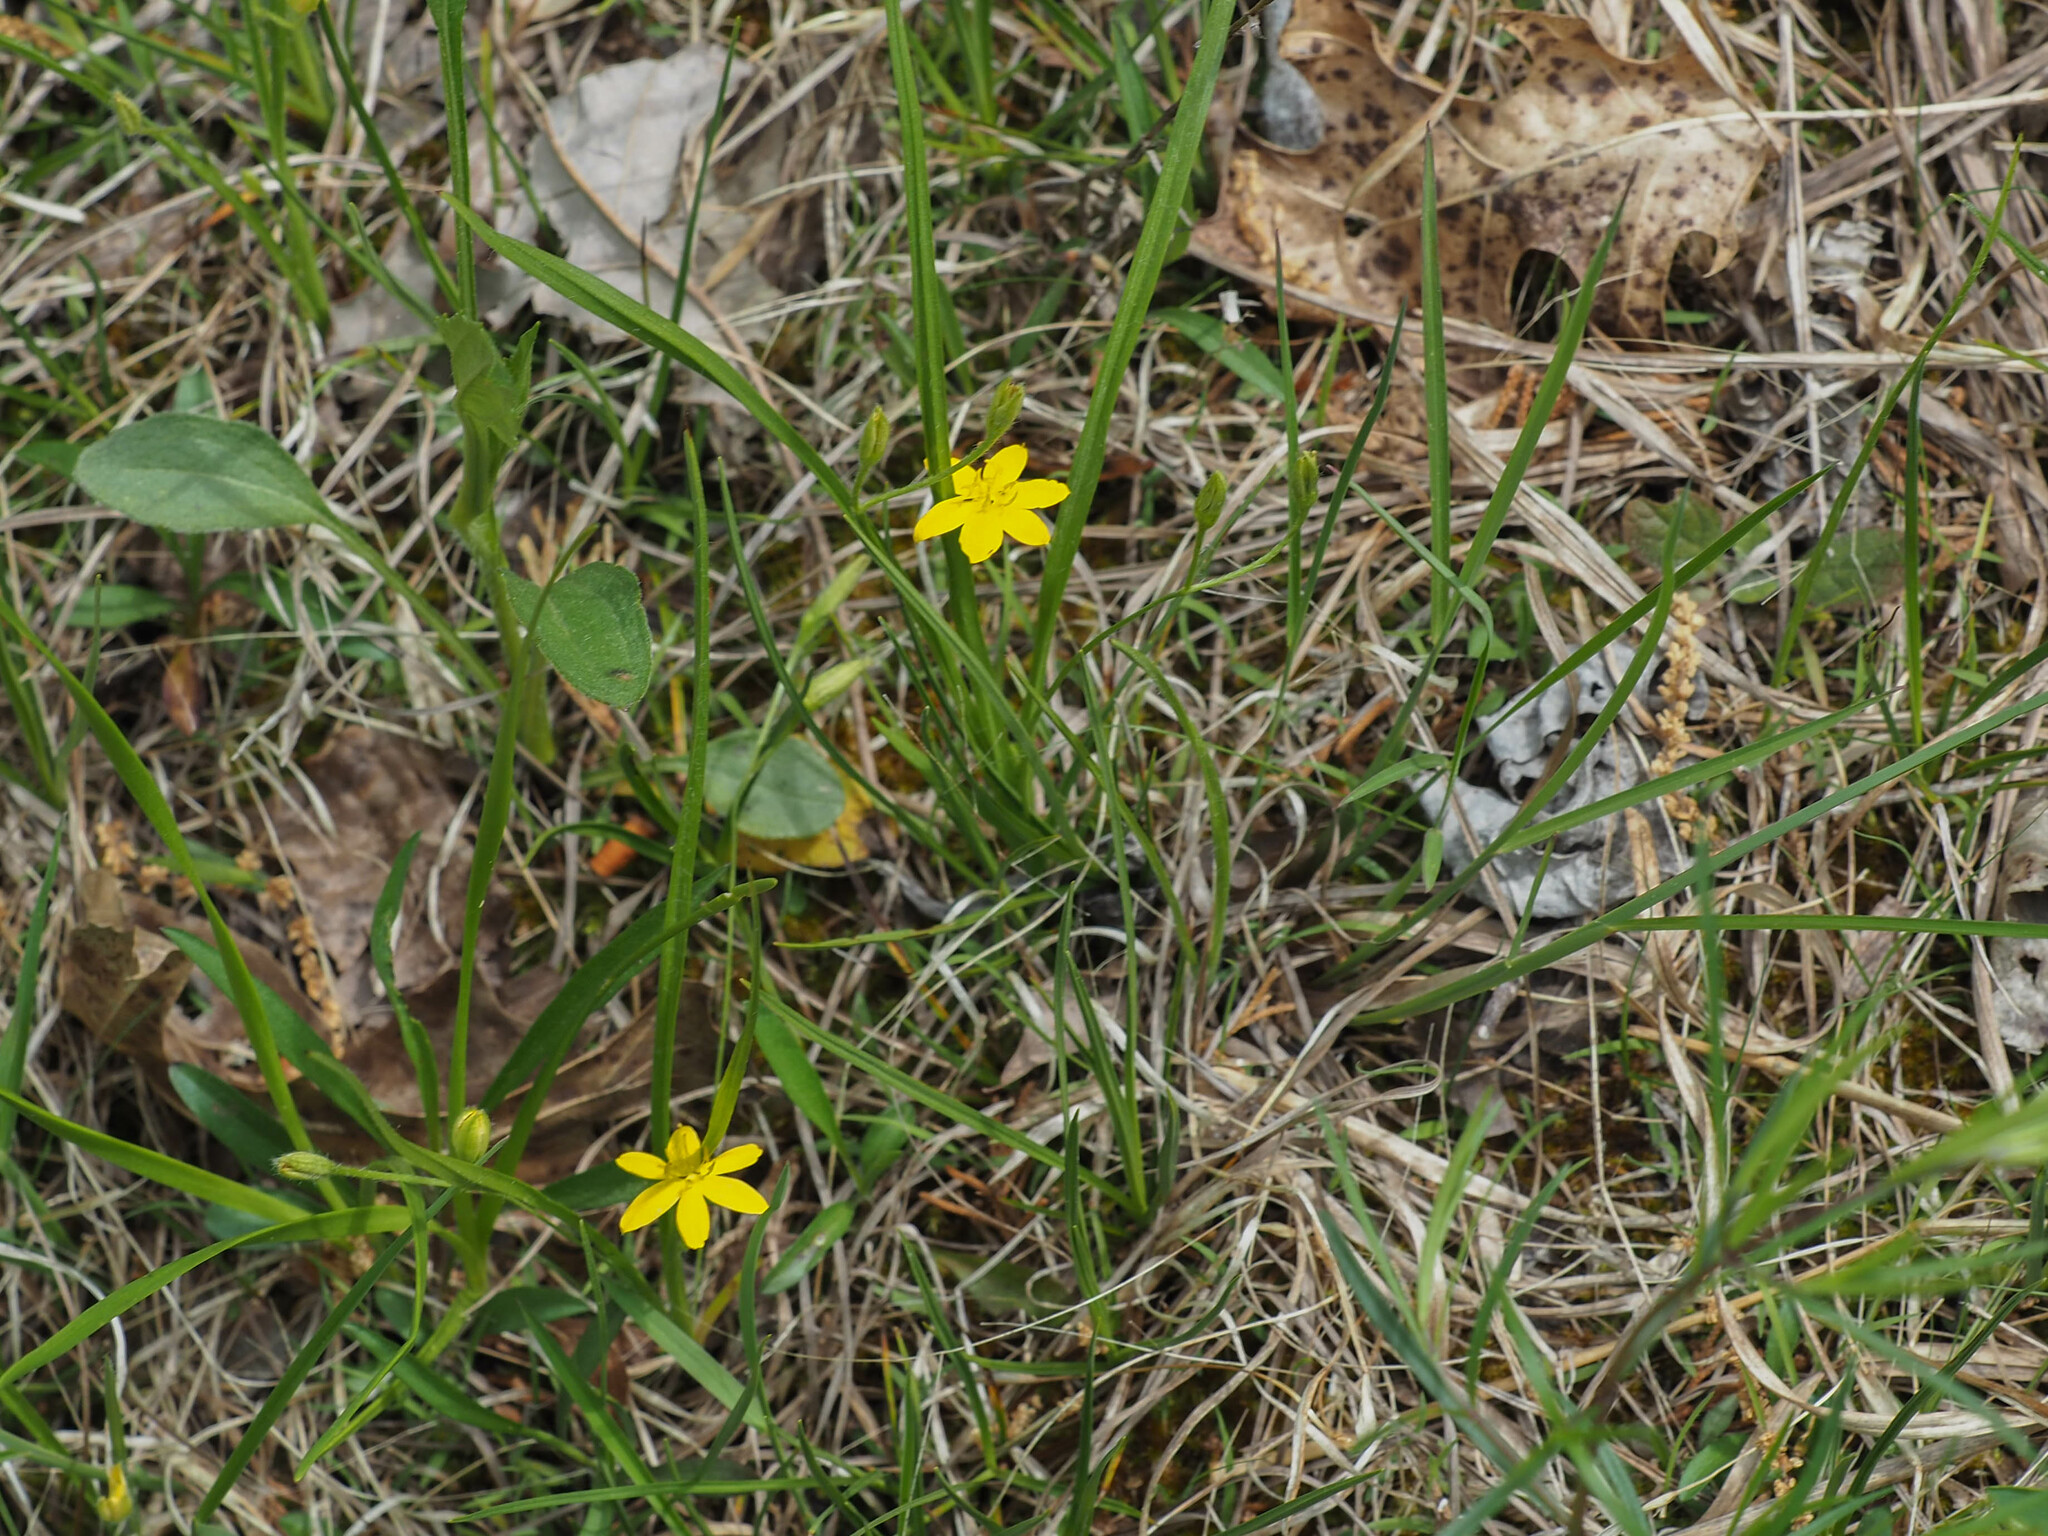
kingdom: Plantae
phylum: Tracheophyta
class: Liliopsida
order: Asparagales
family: Hypoxidaceae
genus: Hypoxis
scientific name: Hypoxis hirsuta
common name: Common goldstar
